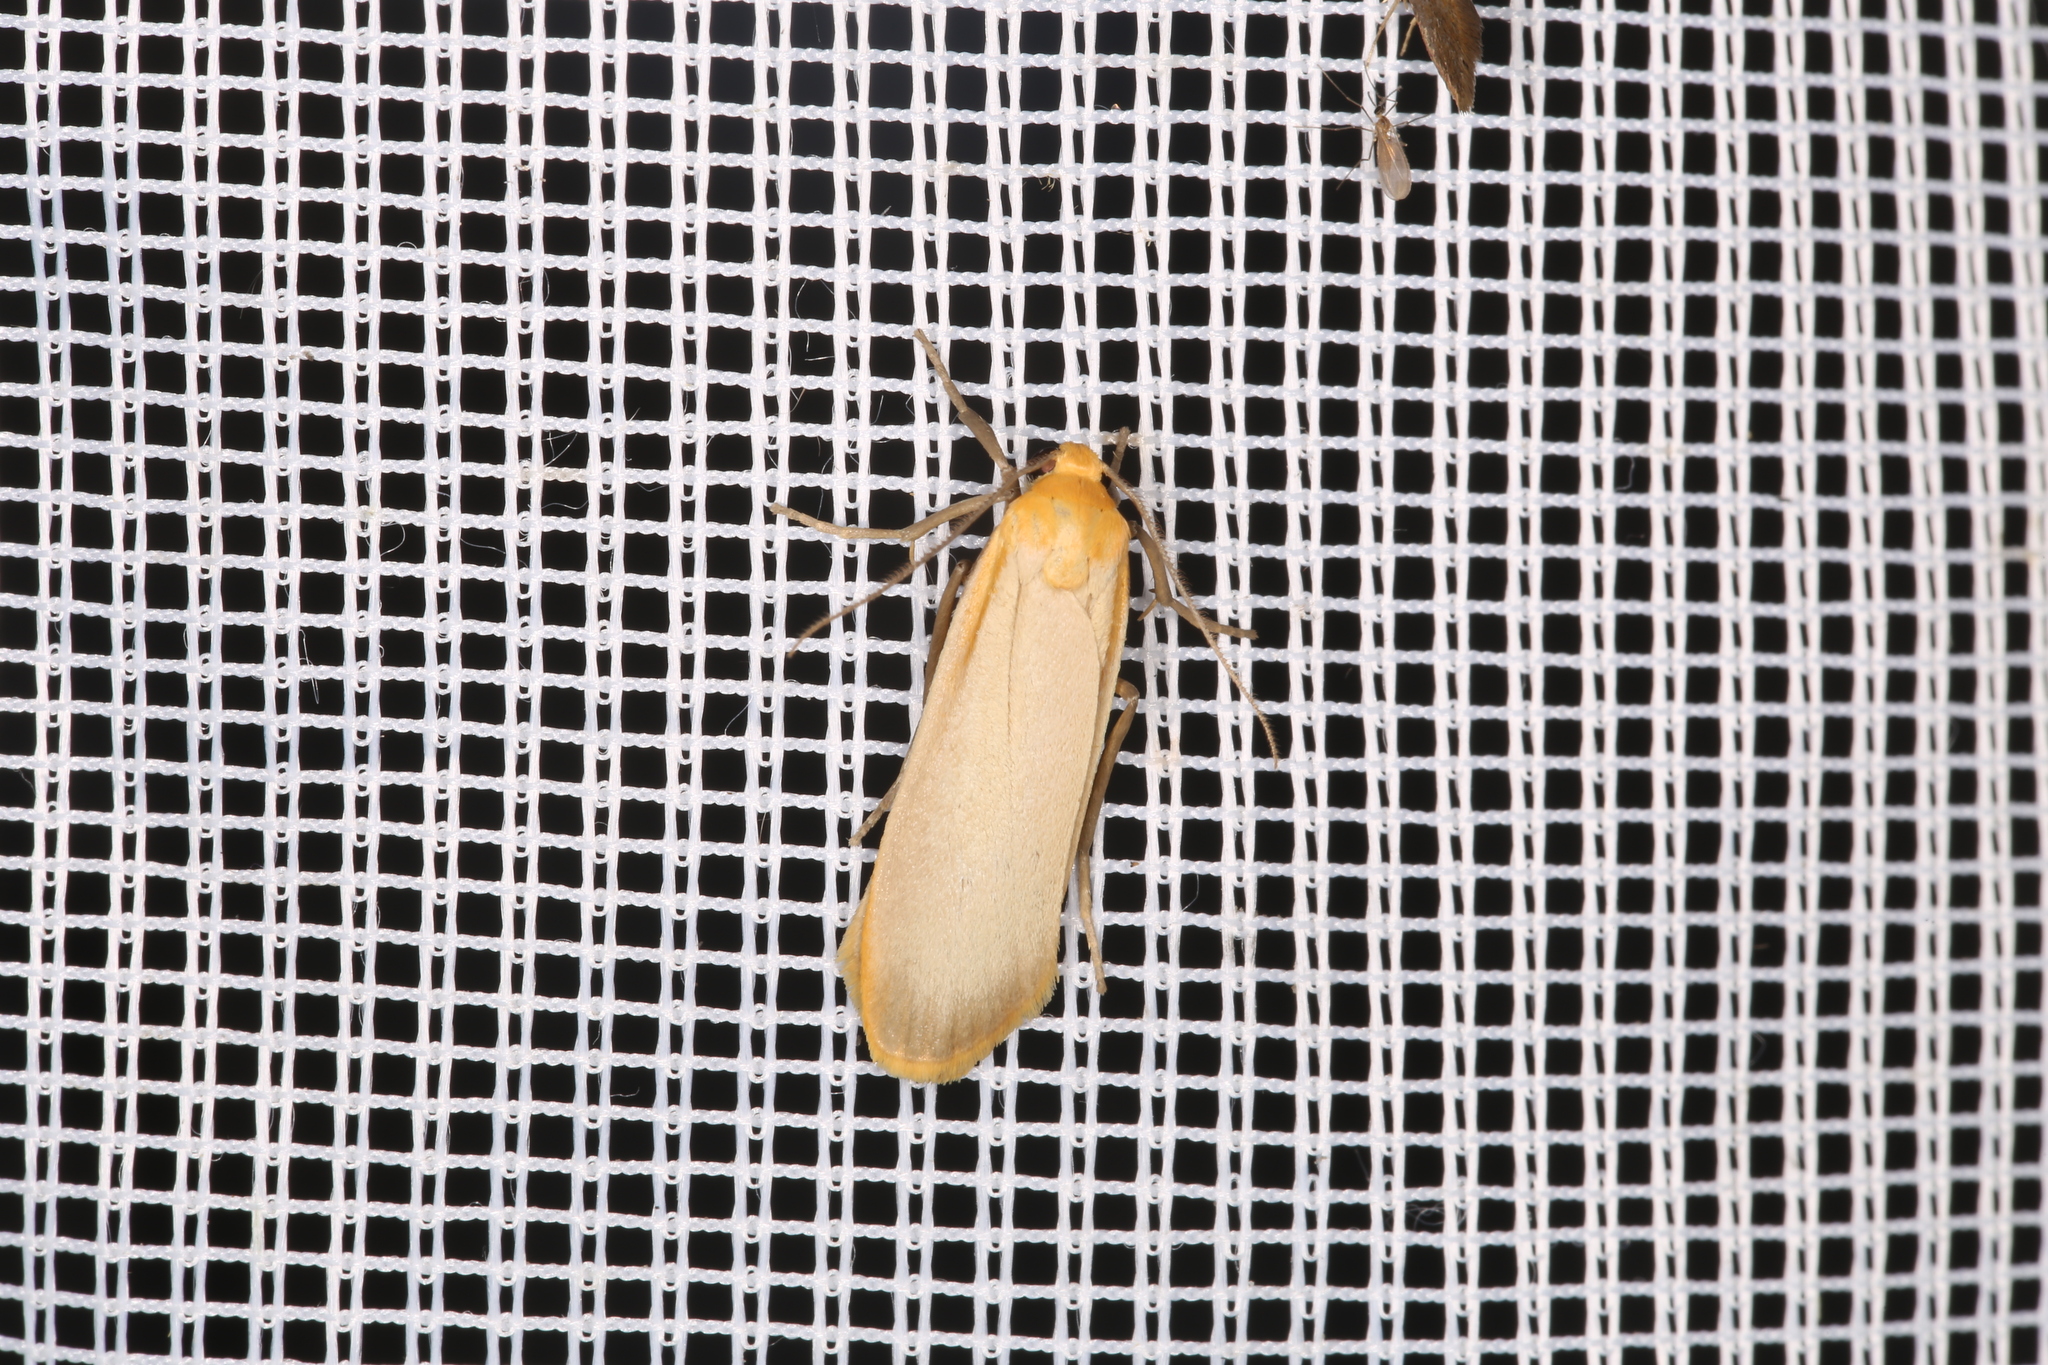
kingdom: Animalia
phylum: Arthropoda
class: Insecta
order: Lepidoptera
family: Erebidae
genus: Katha
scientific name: Katha depressa
